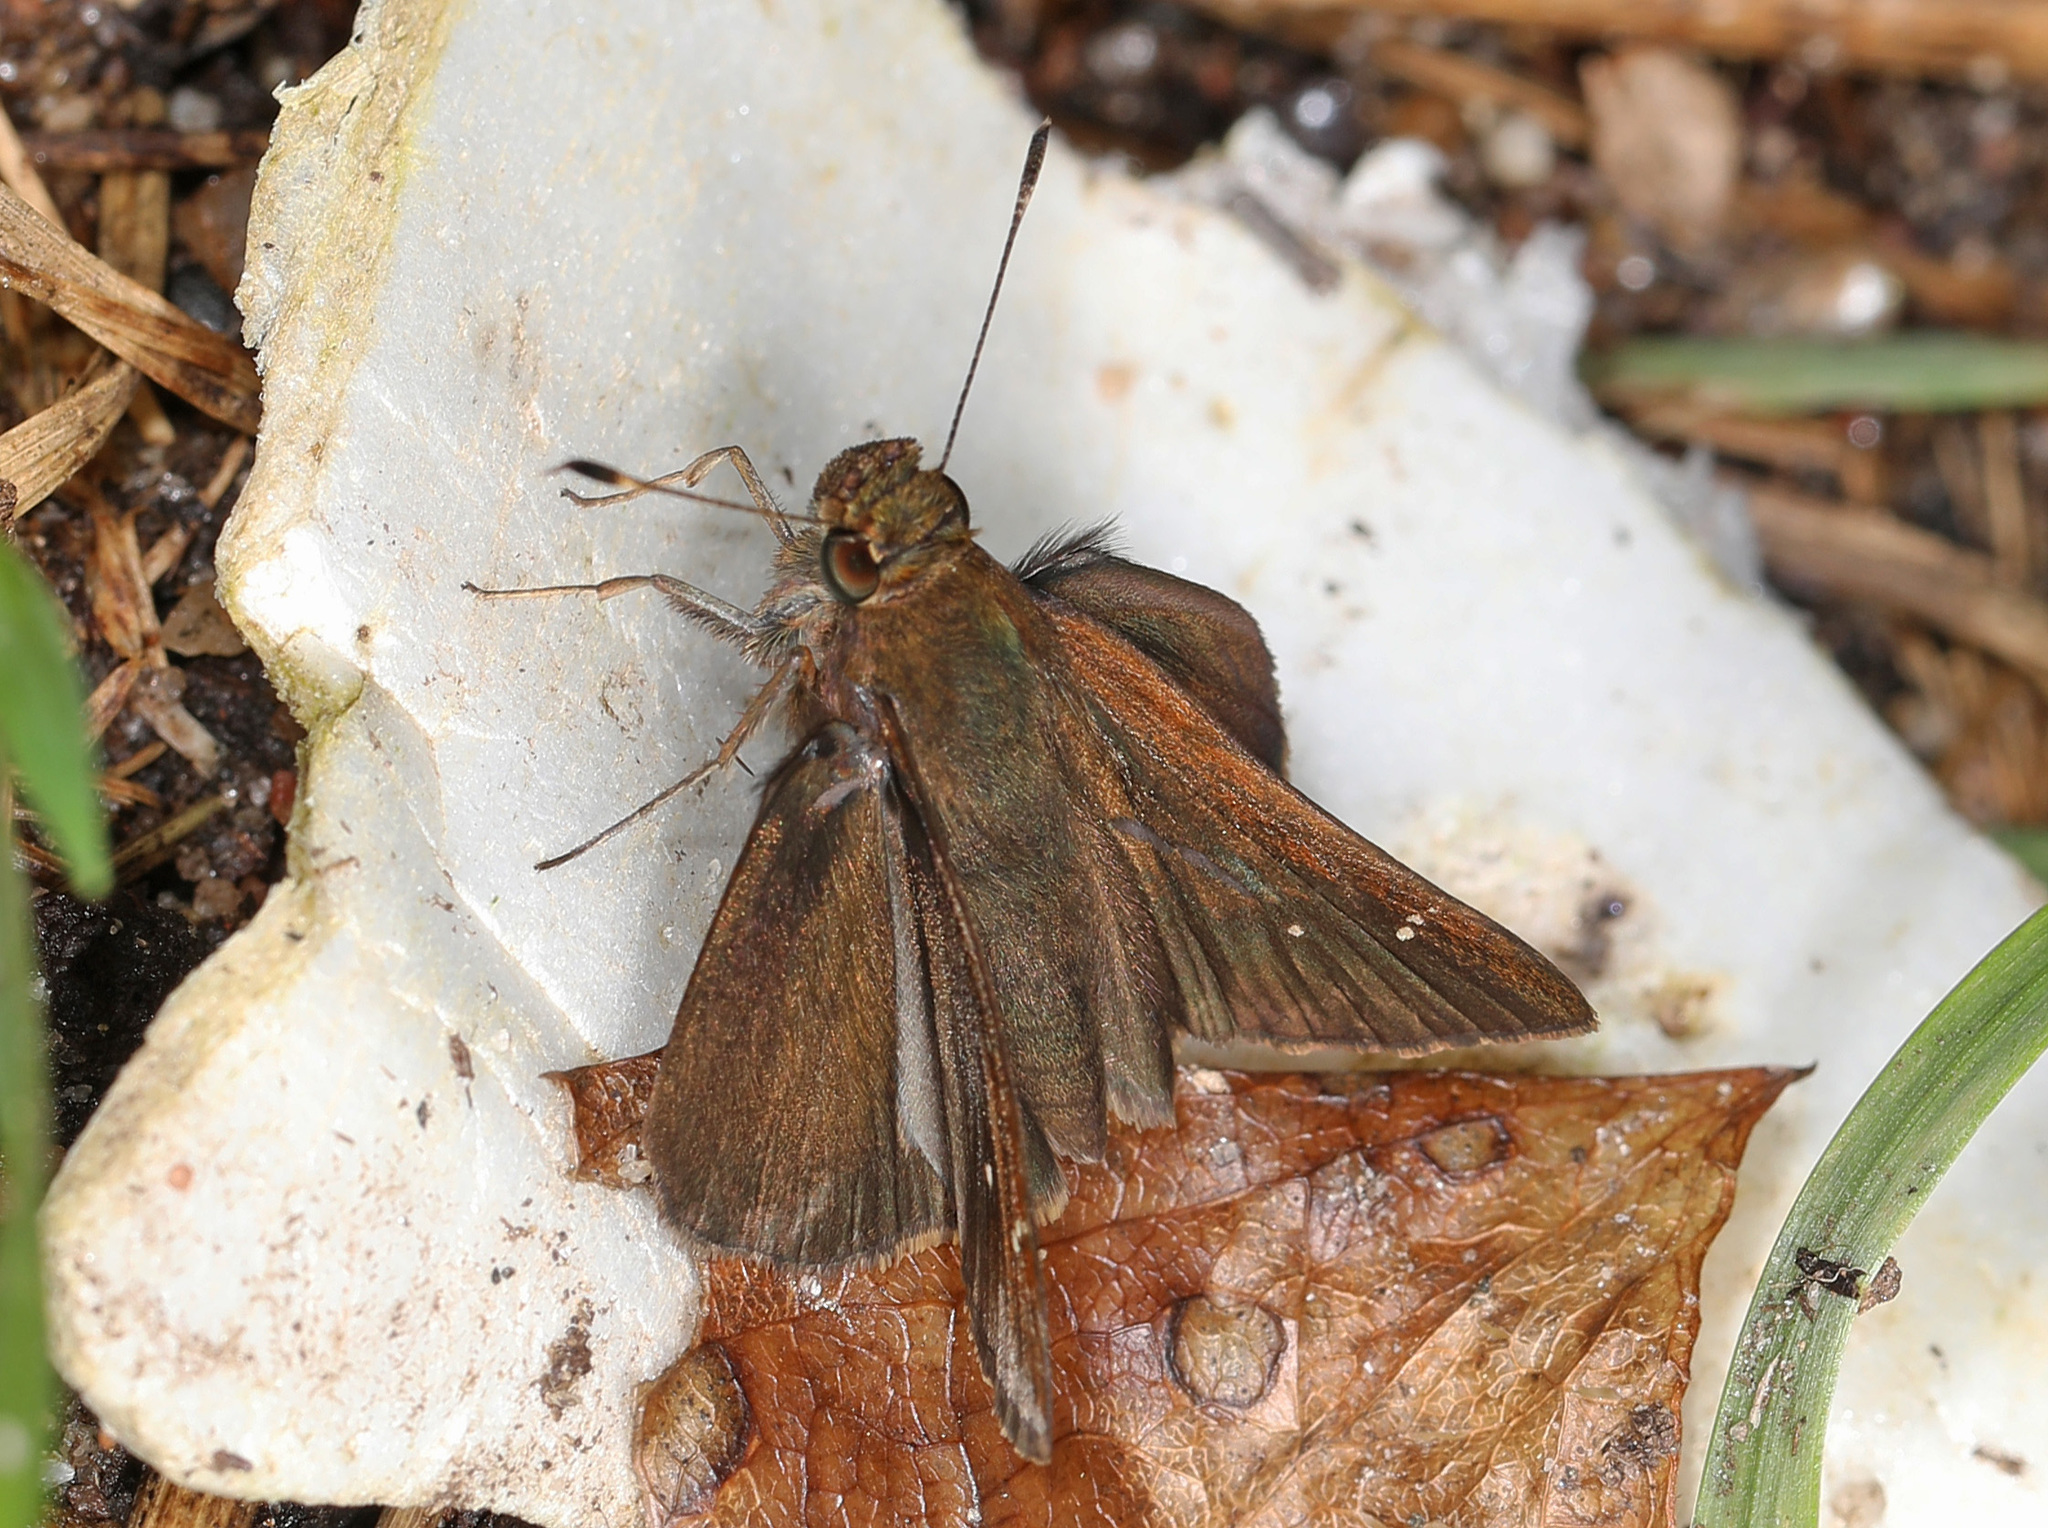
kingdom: Animalia
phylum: Arthropoda
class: Insecta
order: Lepidoptera
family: Hesperiidae
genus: Lerema
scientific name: Lerema accius
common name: Clouded skipper
